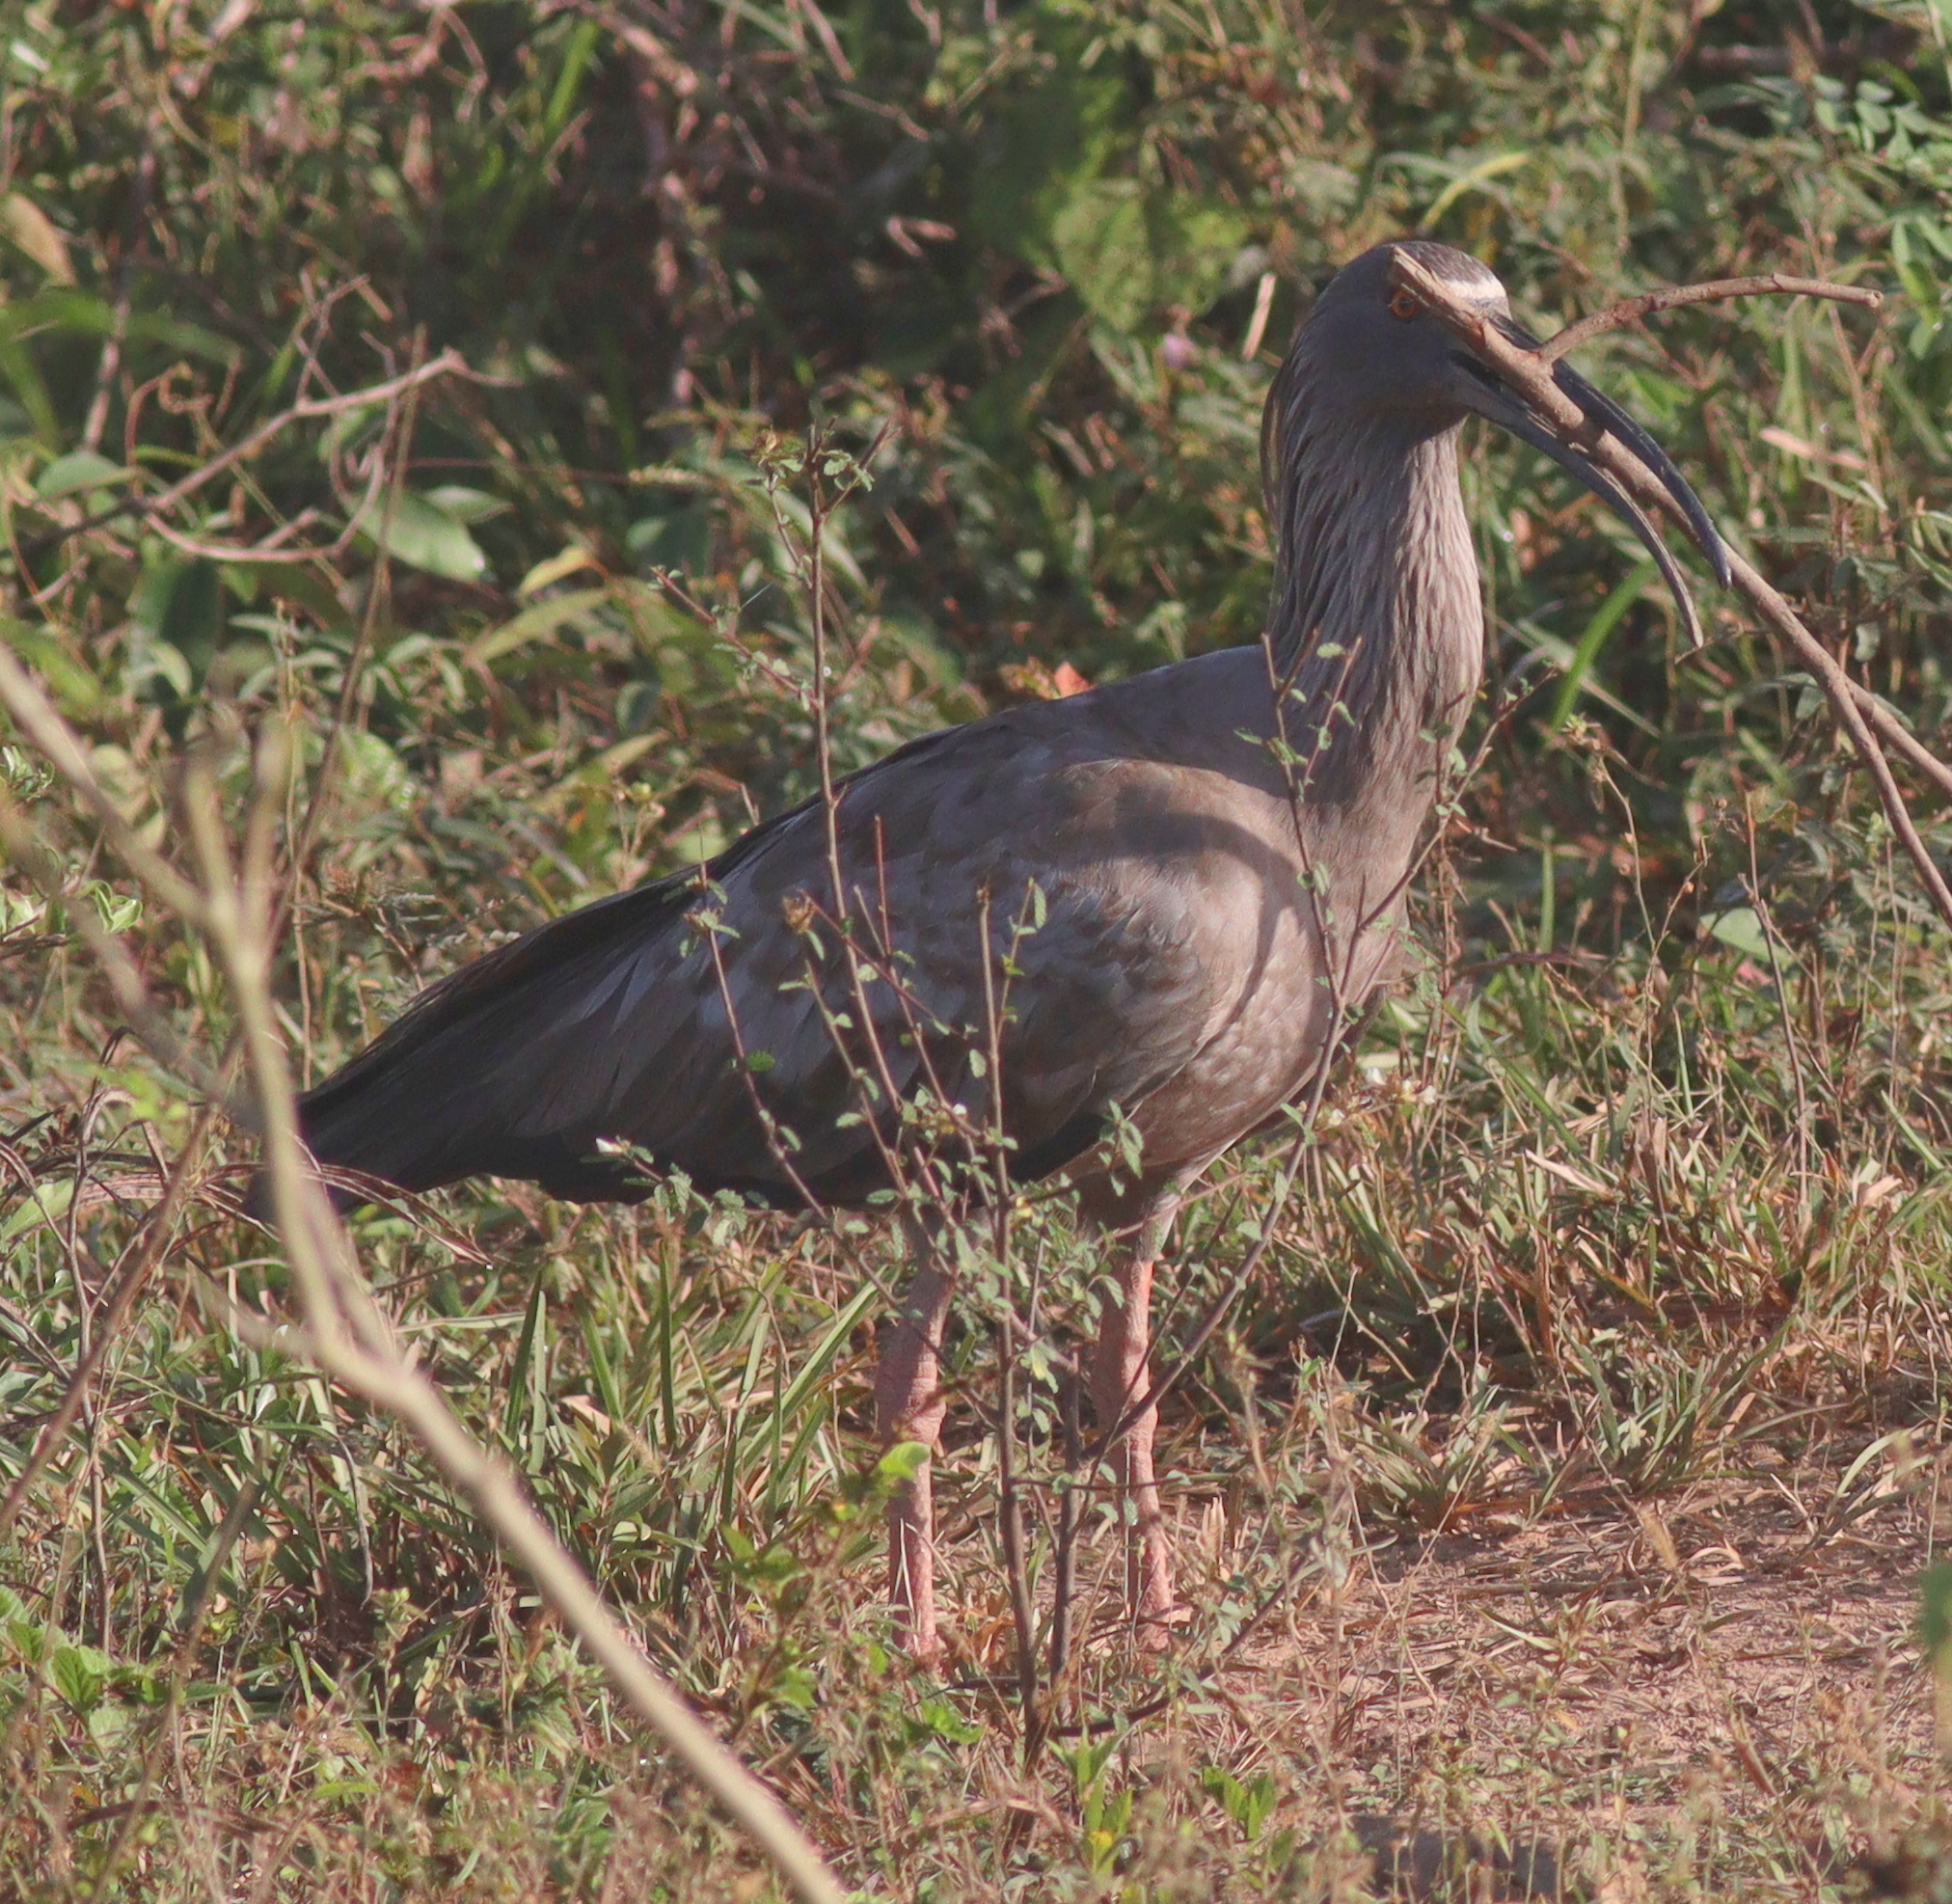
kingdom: Animalia
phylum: Chordata
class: Aves
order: Pelecaniformes
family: Threskiornithidae
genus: Theristicus
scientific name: Theristicus caerulescens
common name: Plumbeous ibis
